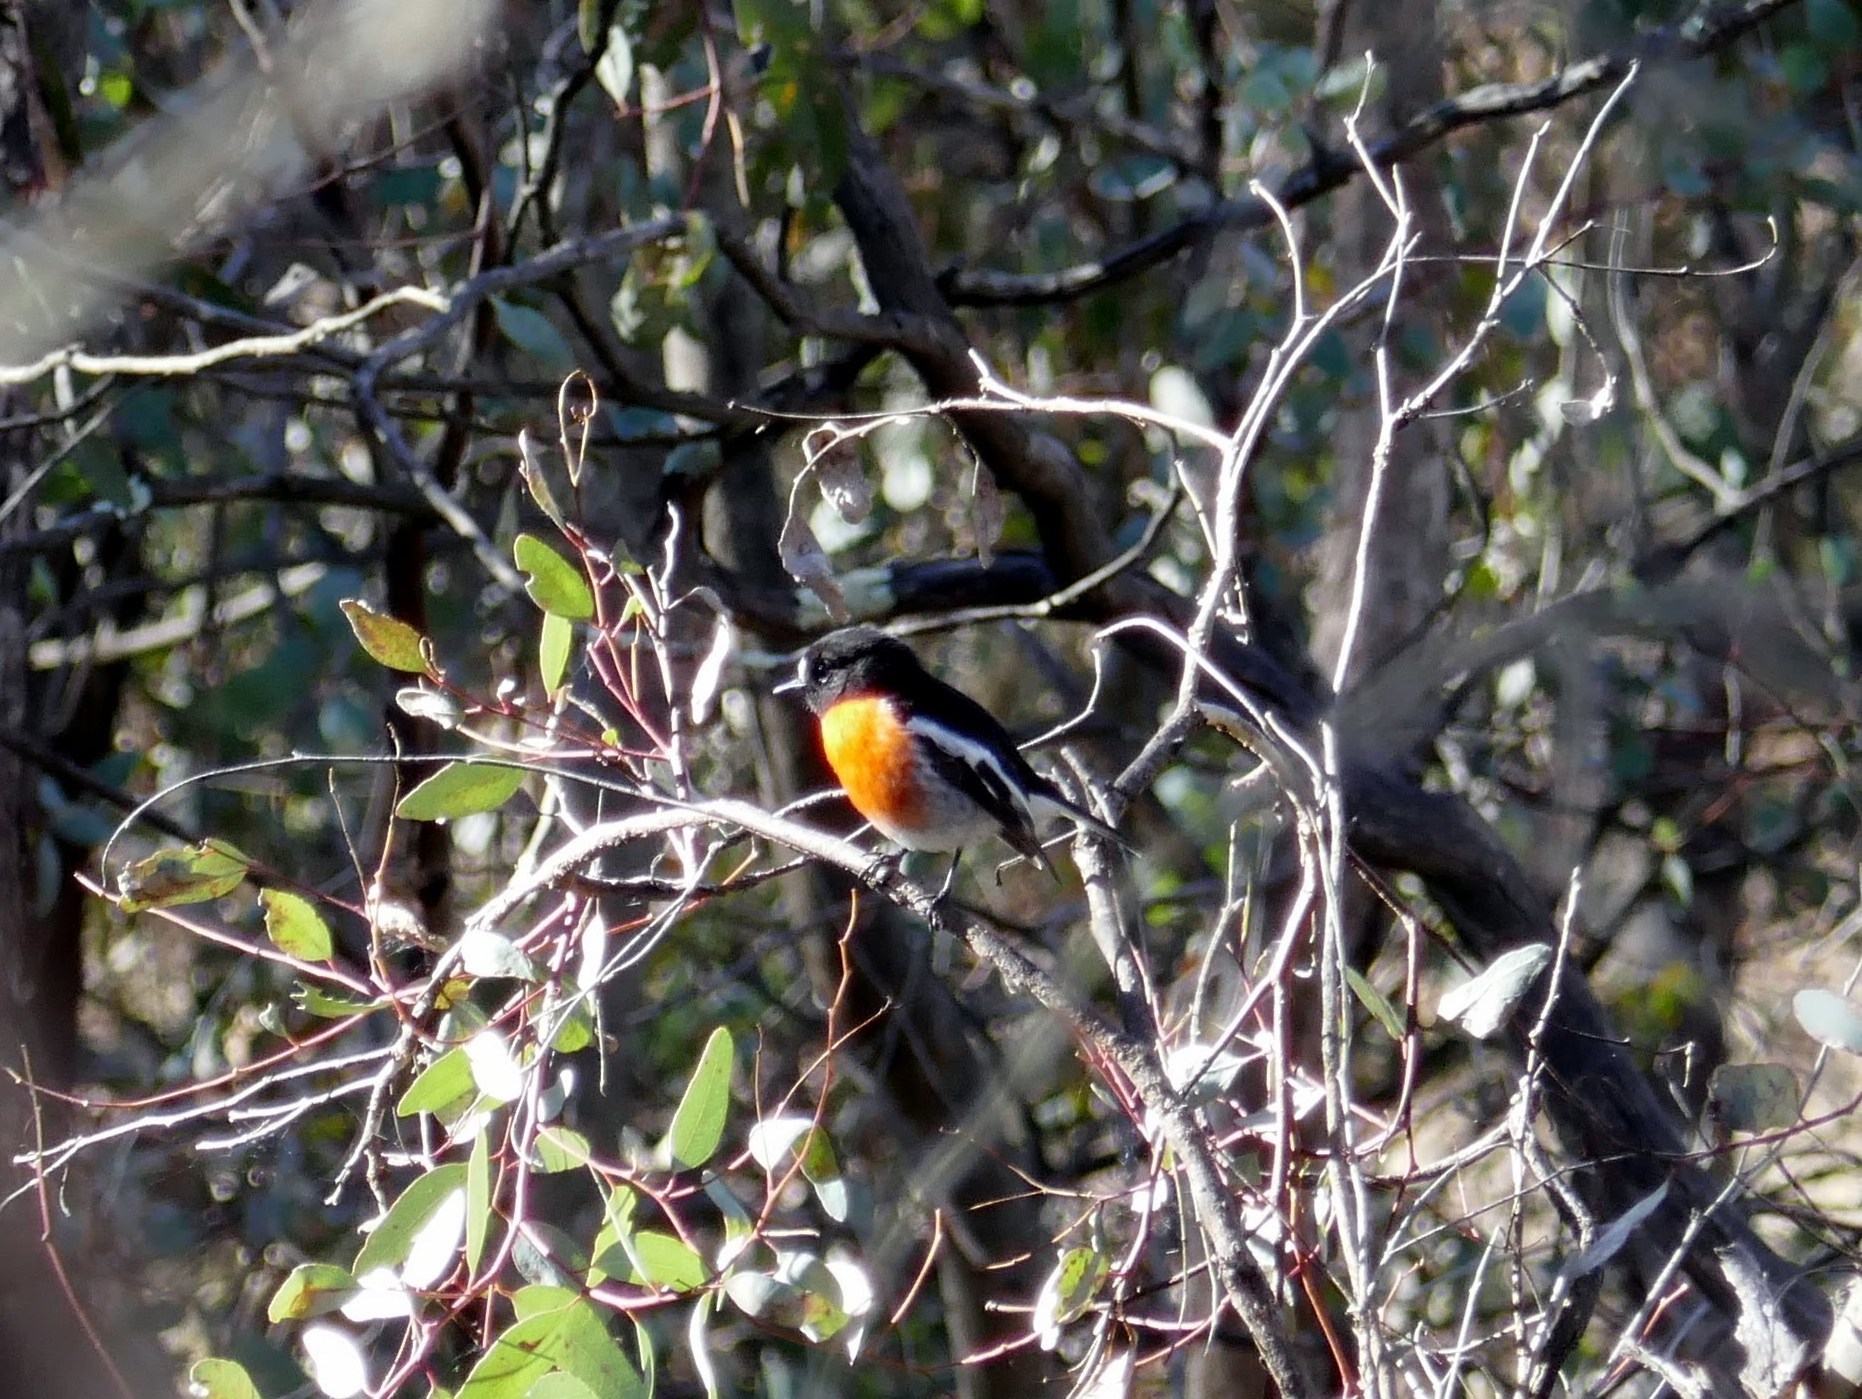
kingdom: Animalia
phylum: Chordata
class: Aves
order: Passeriformes
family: Petroicidae
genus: Petroica
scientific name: Petroica boodang
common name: Scarlet robin
